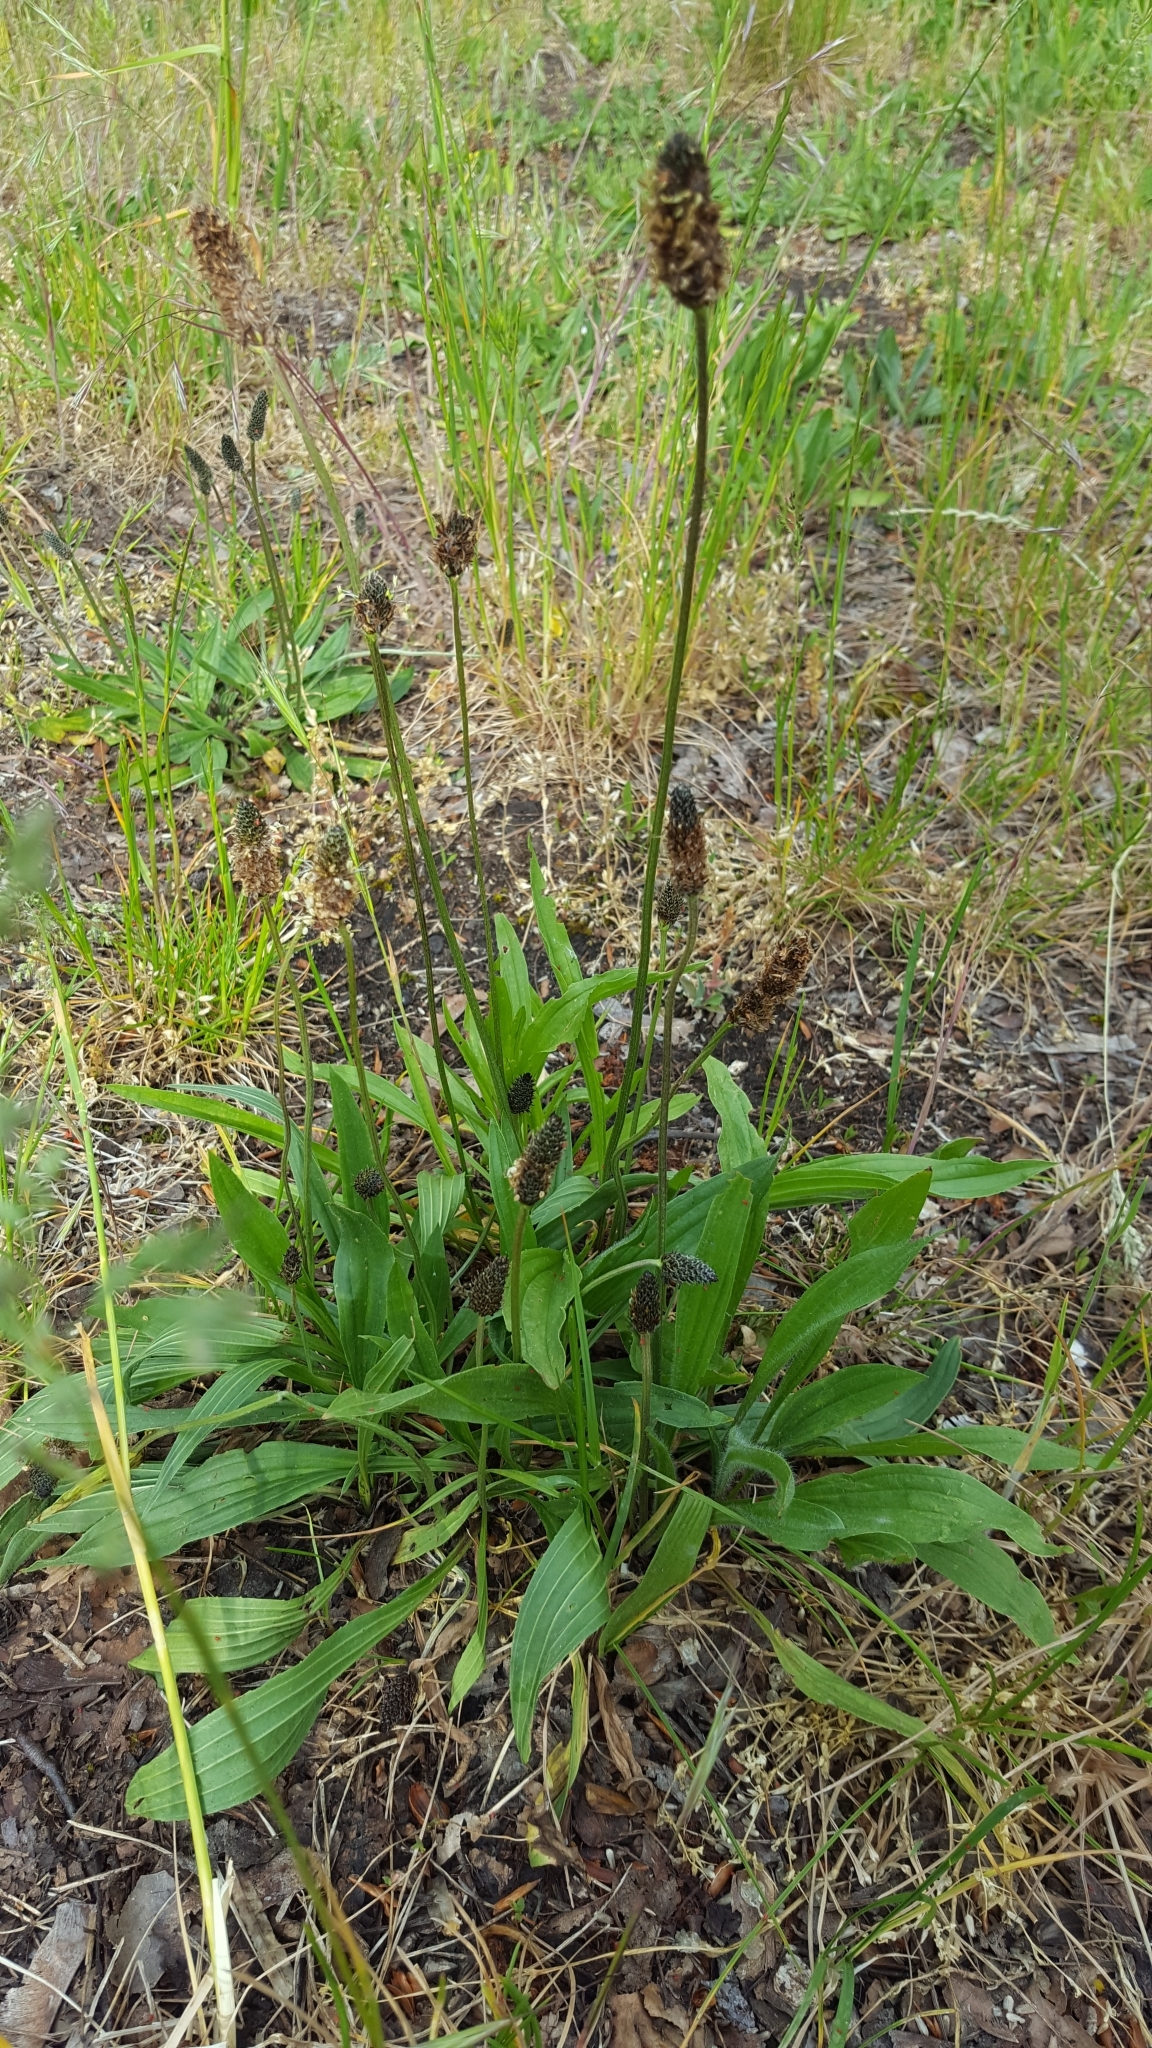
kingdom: Plantae
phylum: Tracheophyta
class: Magnoliopsida
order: Lamiales
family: Plantaginaceae
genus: Plantago
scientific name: Plantago lanceolata
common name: Ribwort plantain
